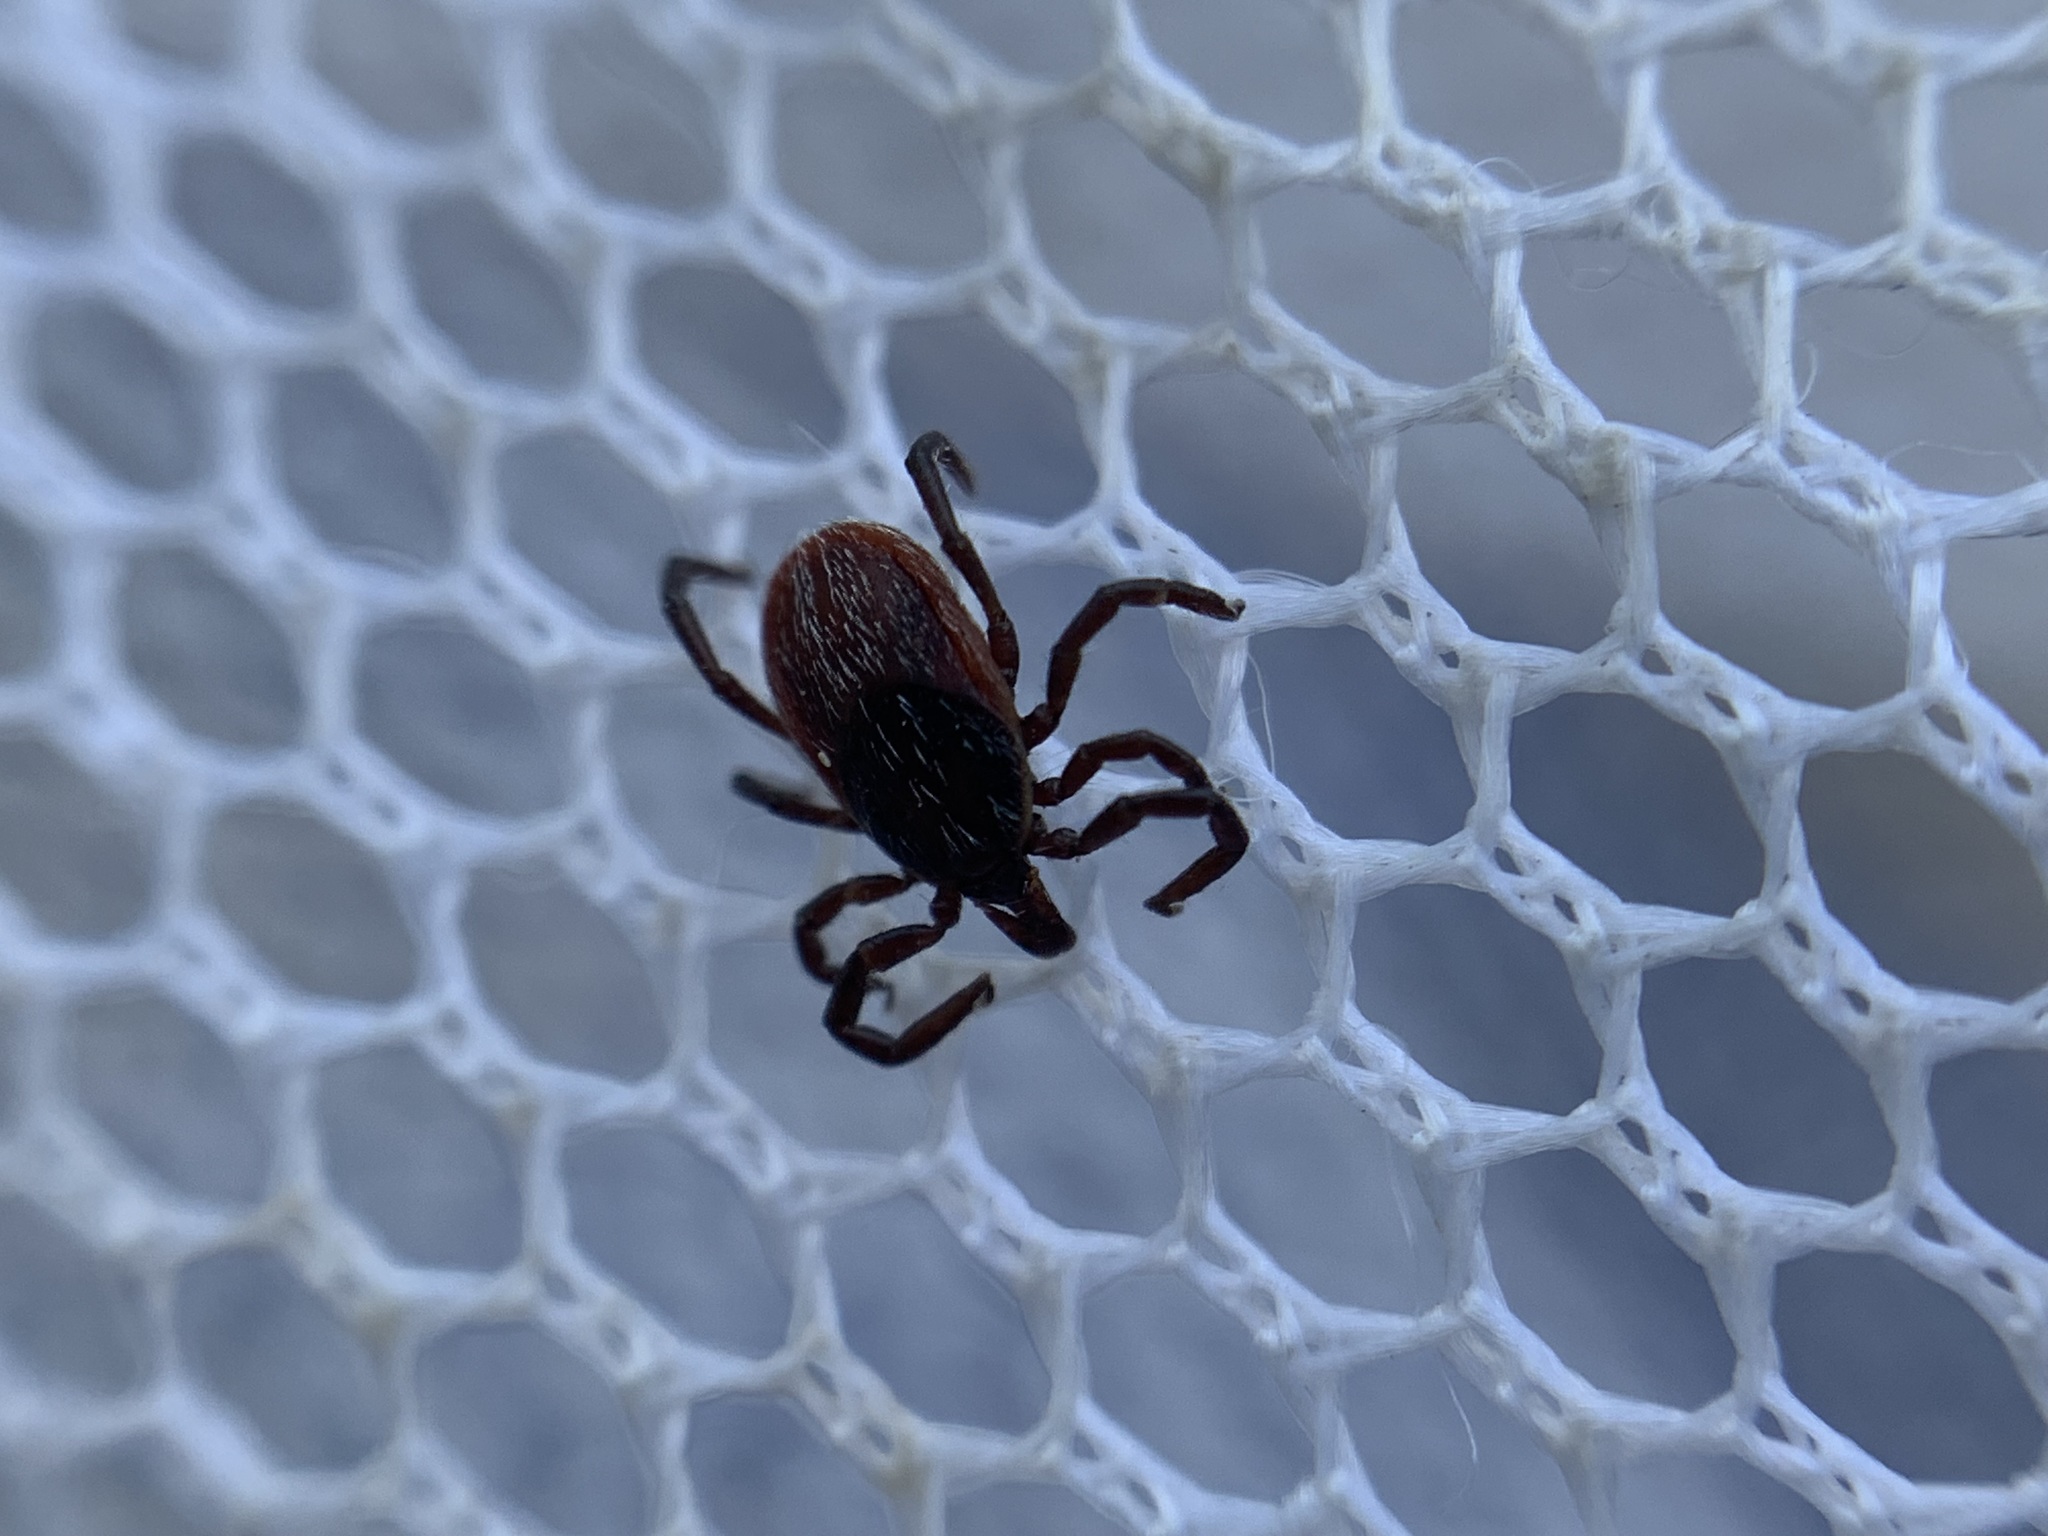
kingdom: Animalia
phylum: Arthropoda
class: Arachnida
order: Ixodida
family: Ixodidae
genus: Ixodes
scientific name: Ixodes pacificus
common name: California black-legged tick
